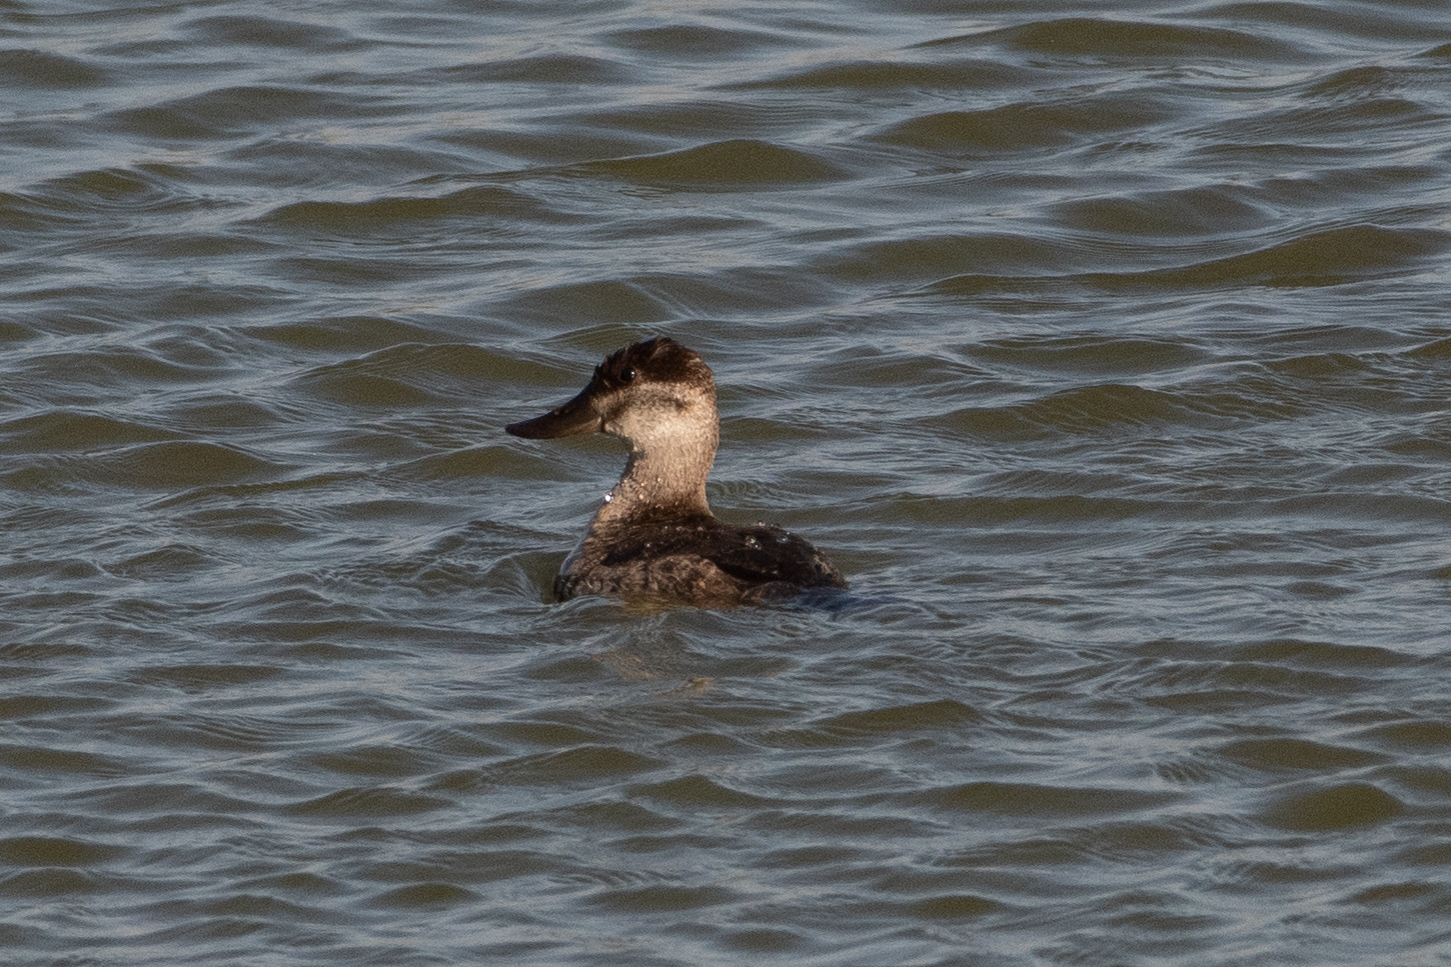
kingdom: Animalia
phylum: Chordata
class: Aves
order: Anseriformes
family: Anatidae
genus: Oxyura
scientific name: Oxyura jamaicensis
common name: Ruddy duck
